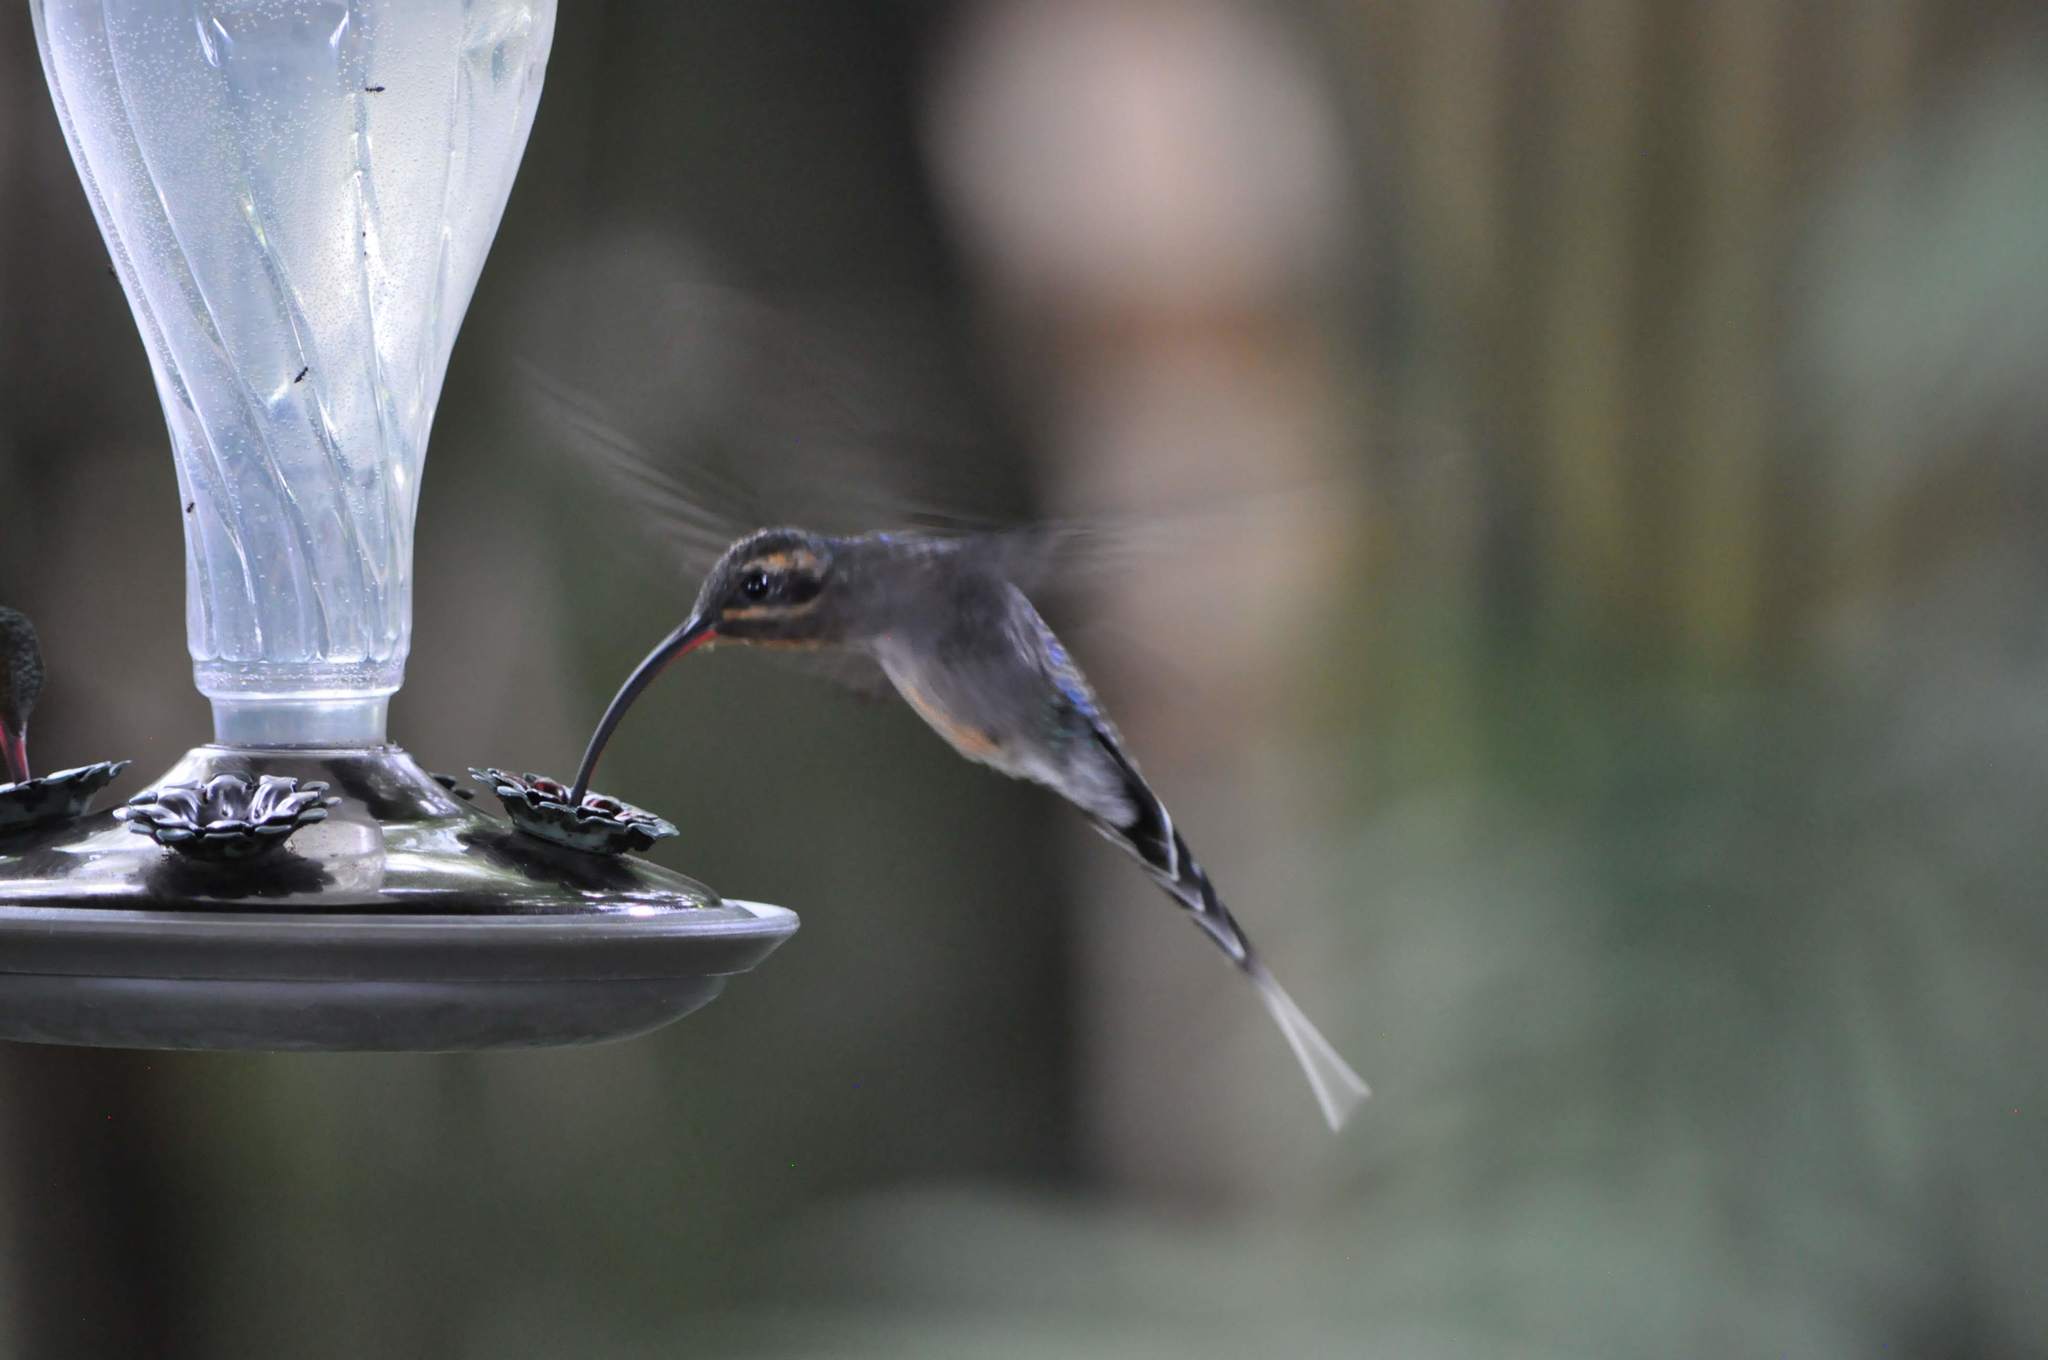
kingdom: Animalia
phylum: Chordata
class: Aves
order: Apodiformes
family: Trochilidae
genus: Phaethornis
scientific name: Phaethornis longirostris
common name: Long-billed hermit
